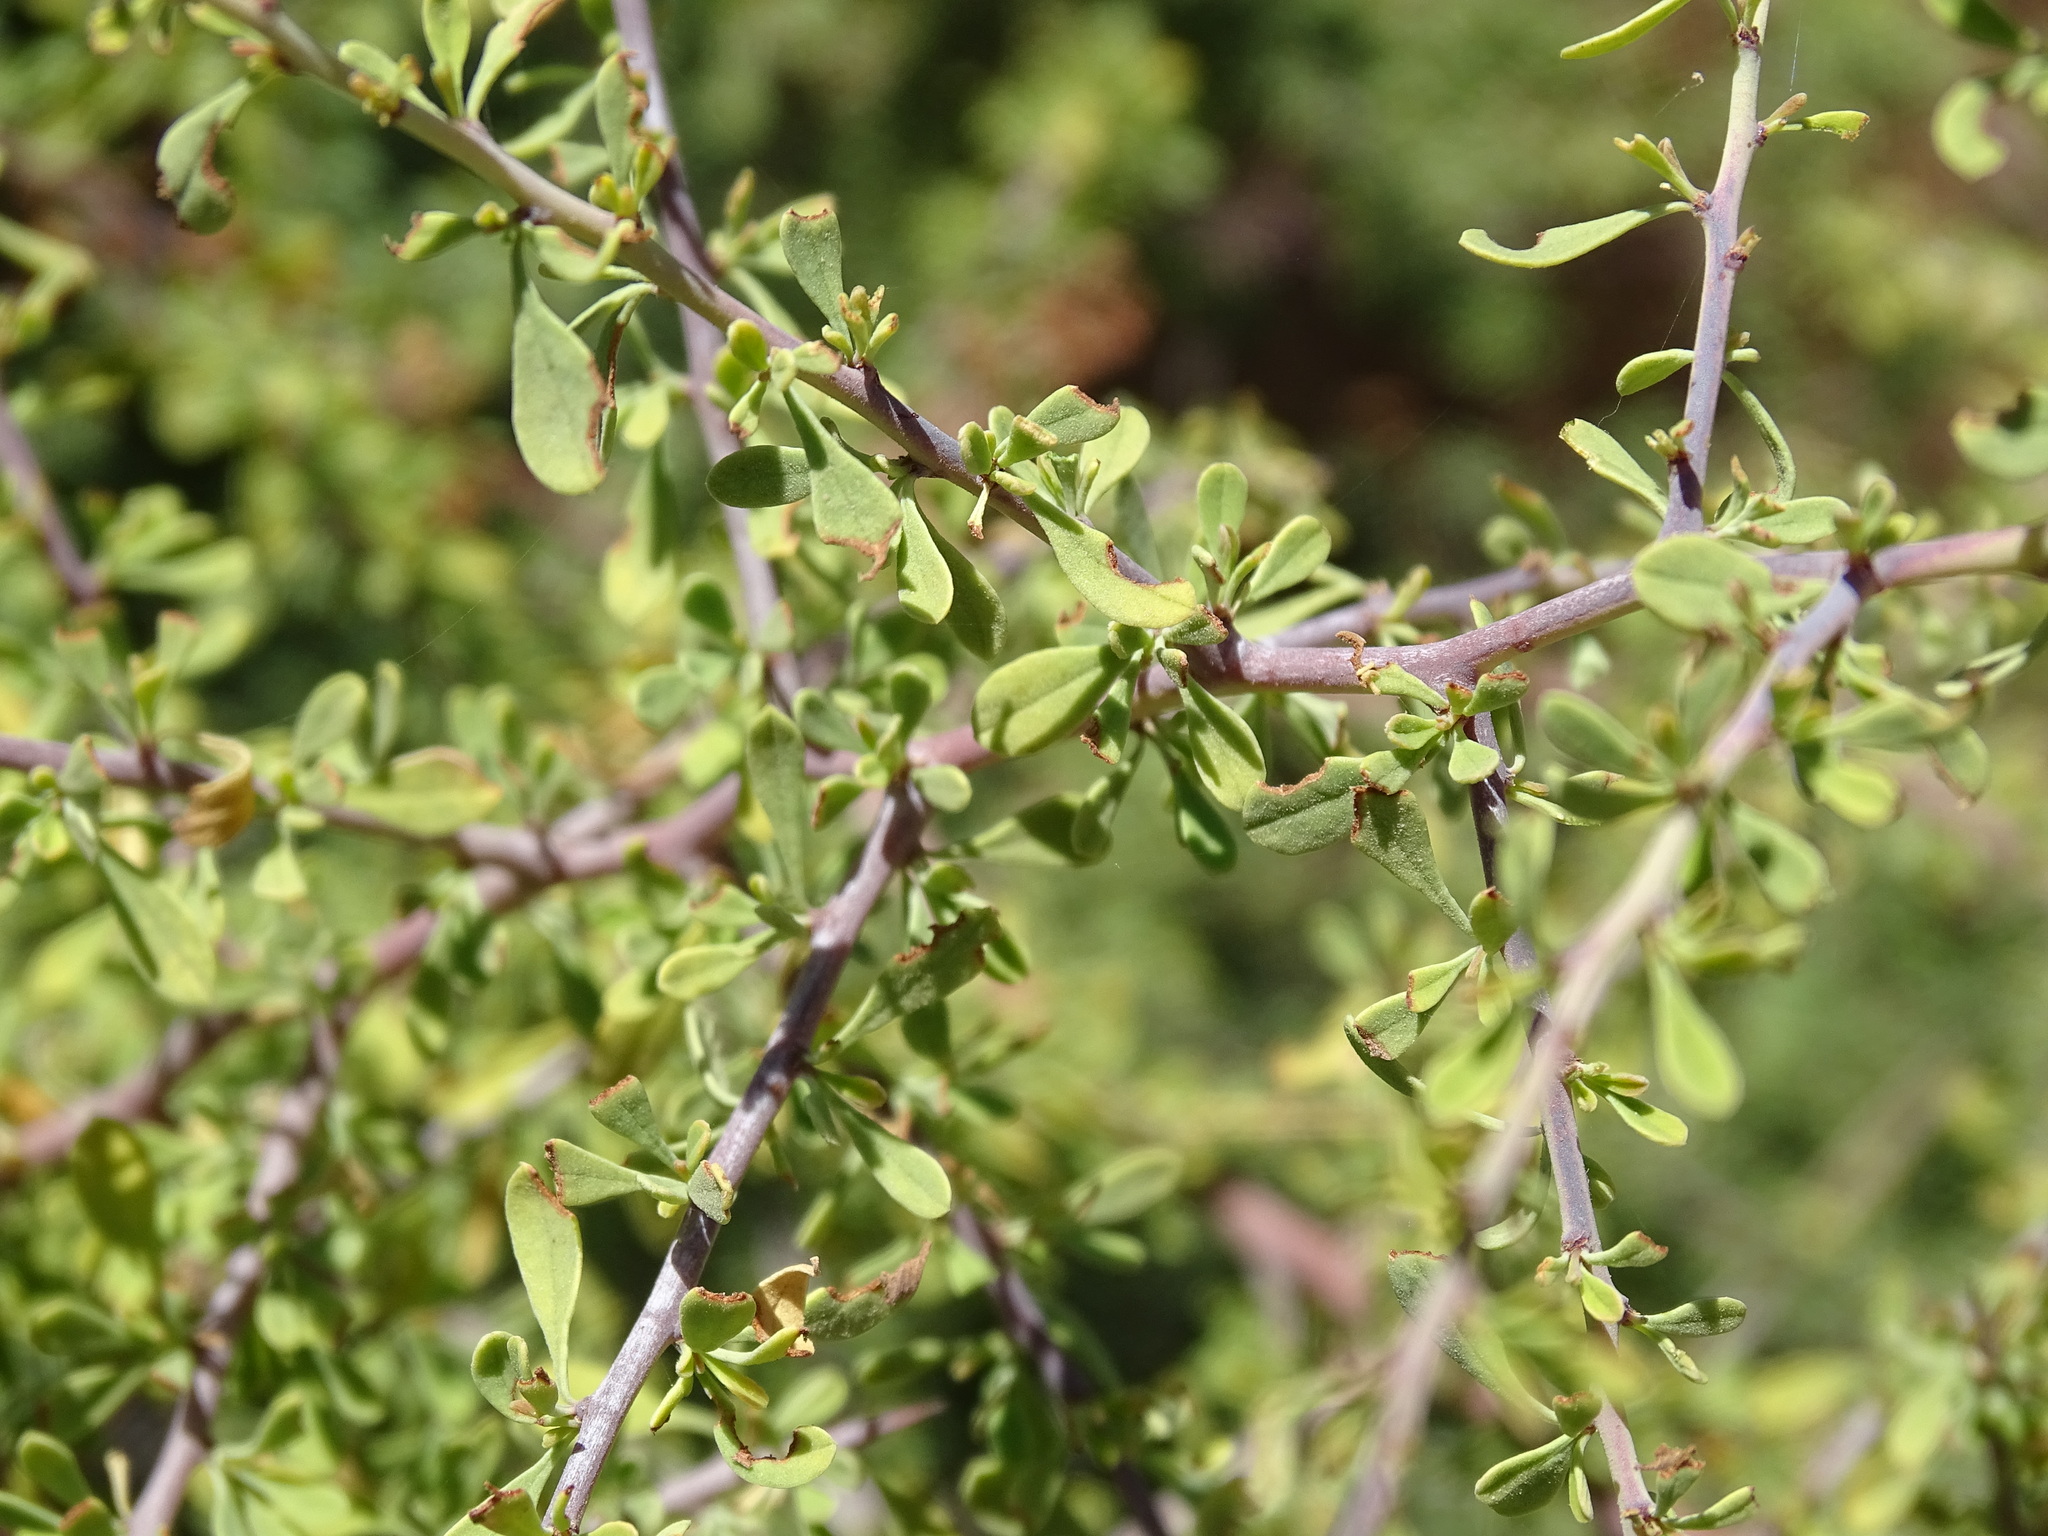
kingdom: Plantae
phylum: Tracheophyta
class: Magnoliopsida
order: Rosales
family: Rhamnaceae
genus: Condalia
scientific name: Condalia globosa
